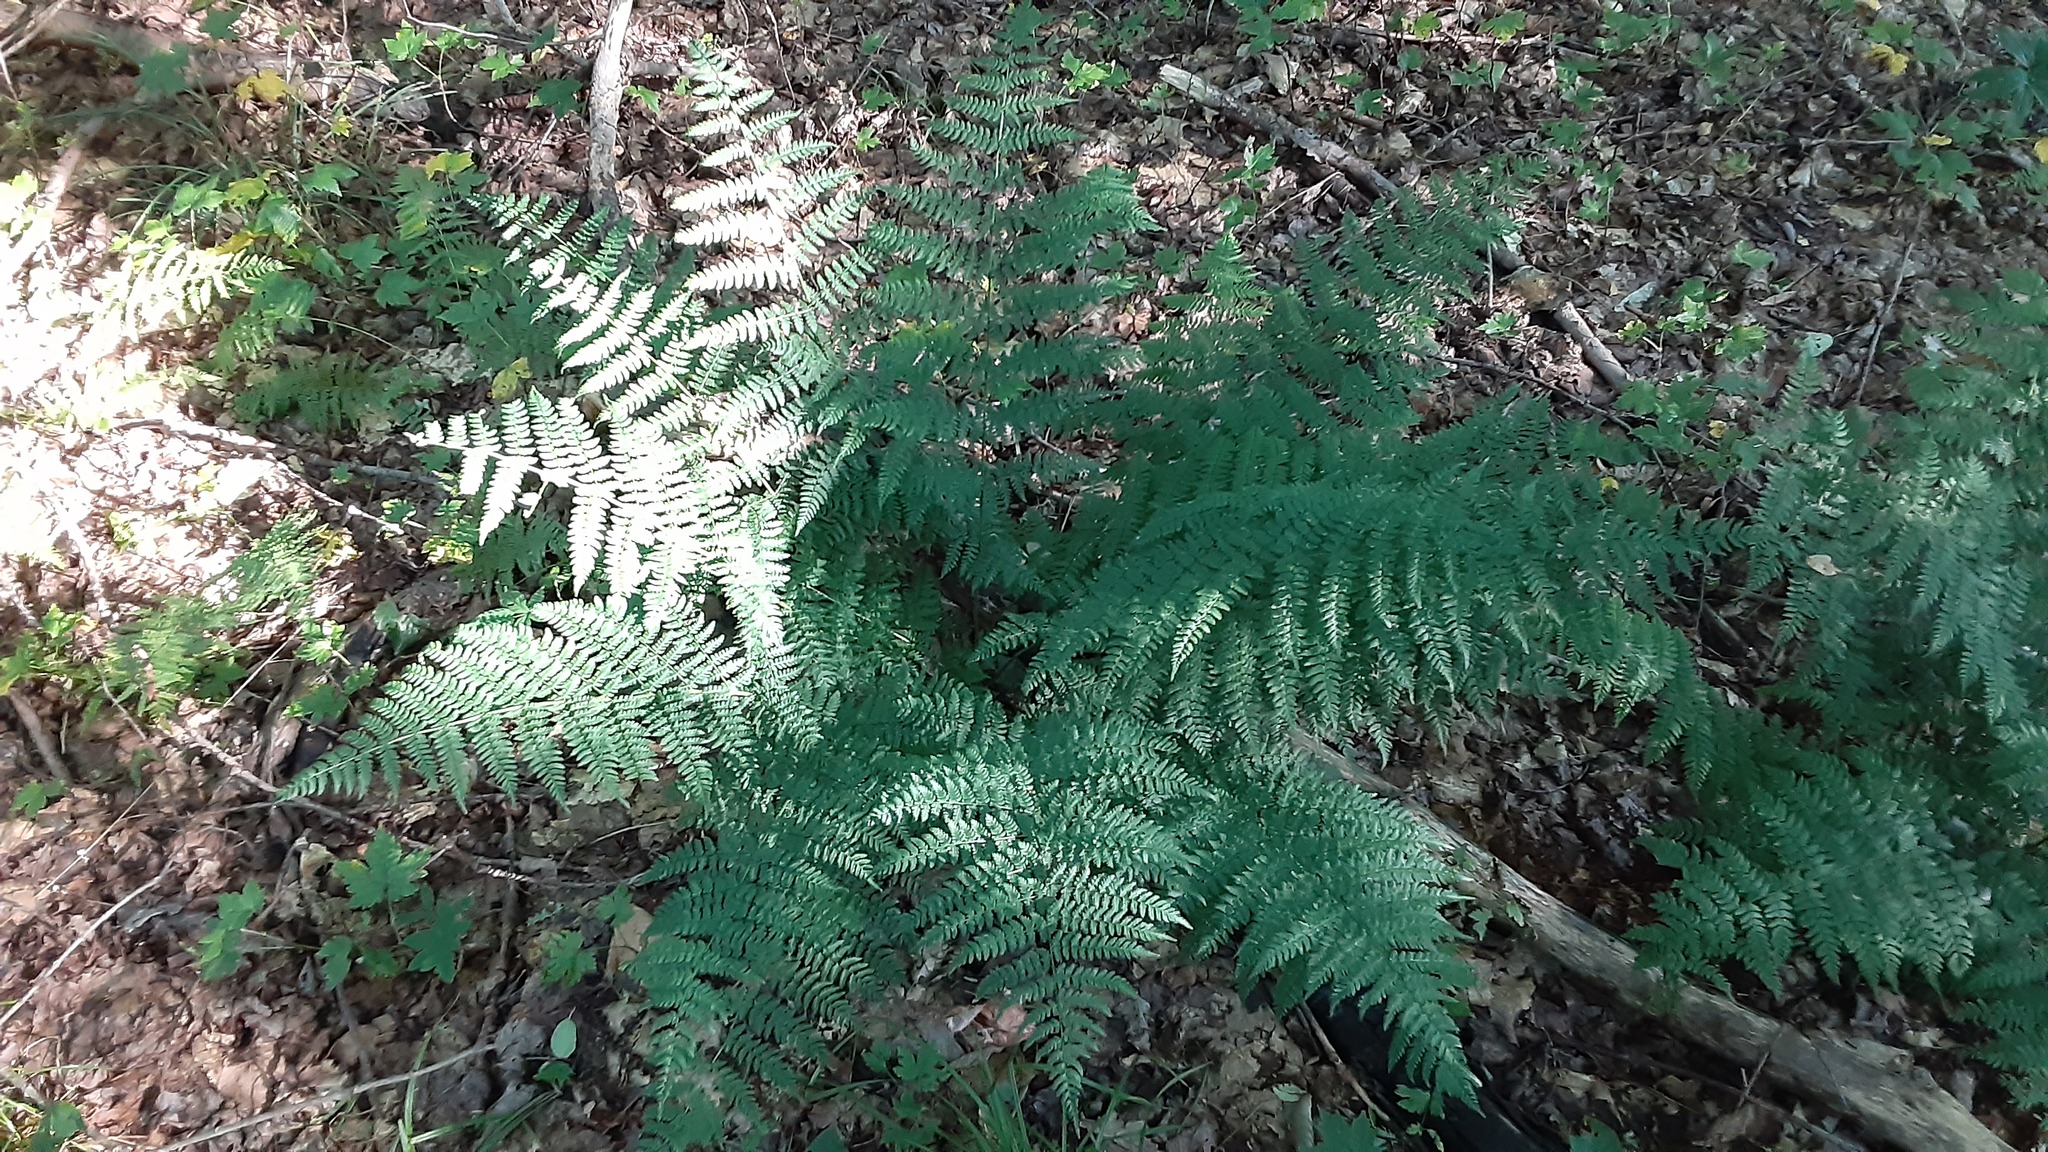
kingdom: Plantae
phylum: Tracheophyta
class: Polypodiopsida
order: Polypodiales
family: Dryopteridaceae
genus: Dryopteris
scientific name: Dryopteris intermedia
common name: Evergreen wood fern
